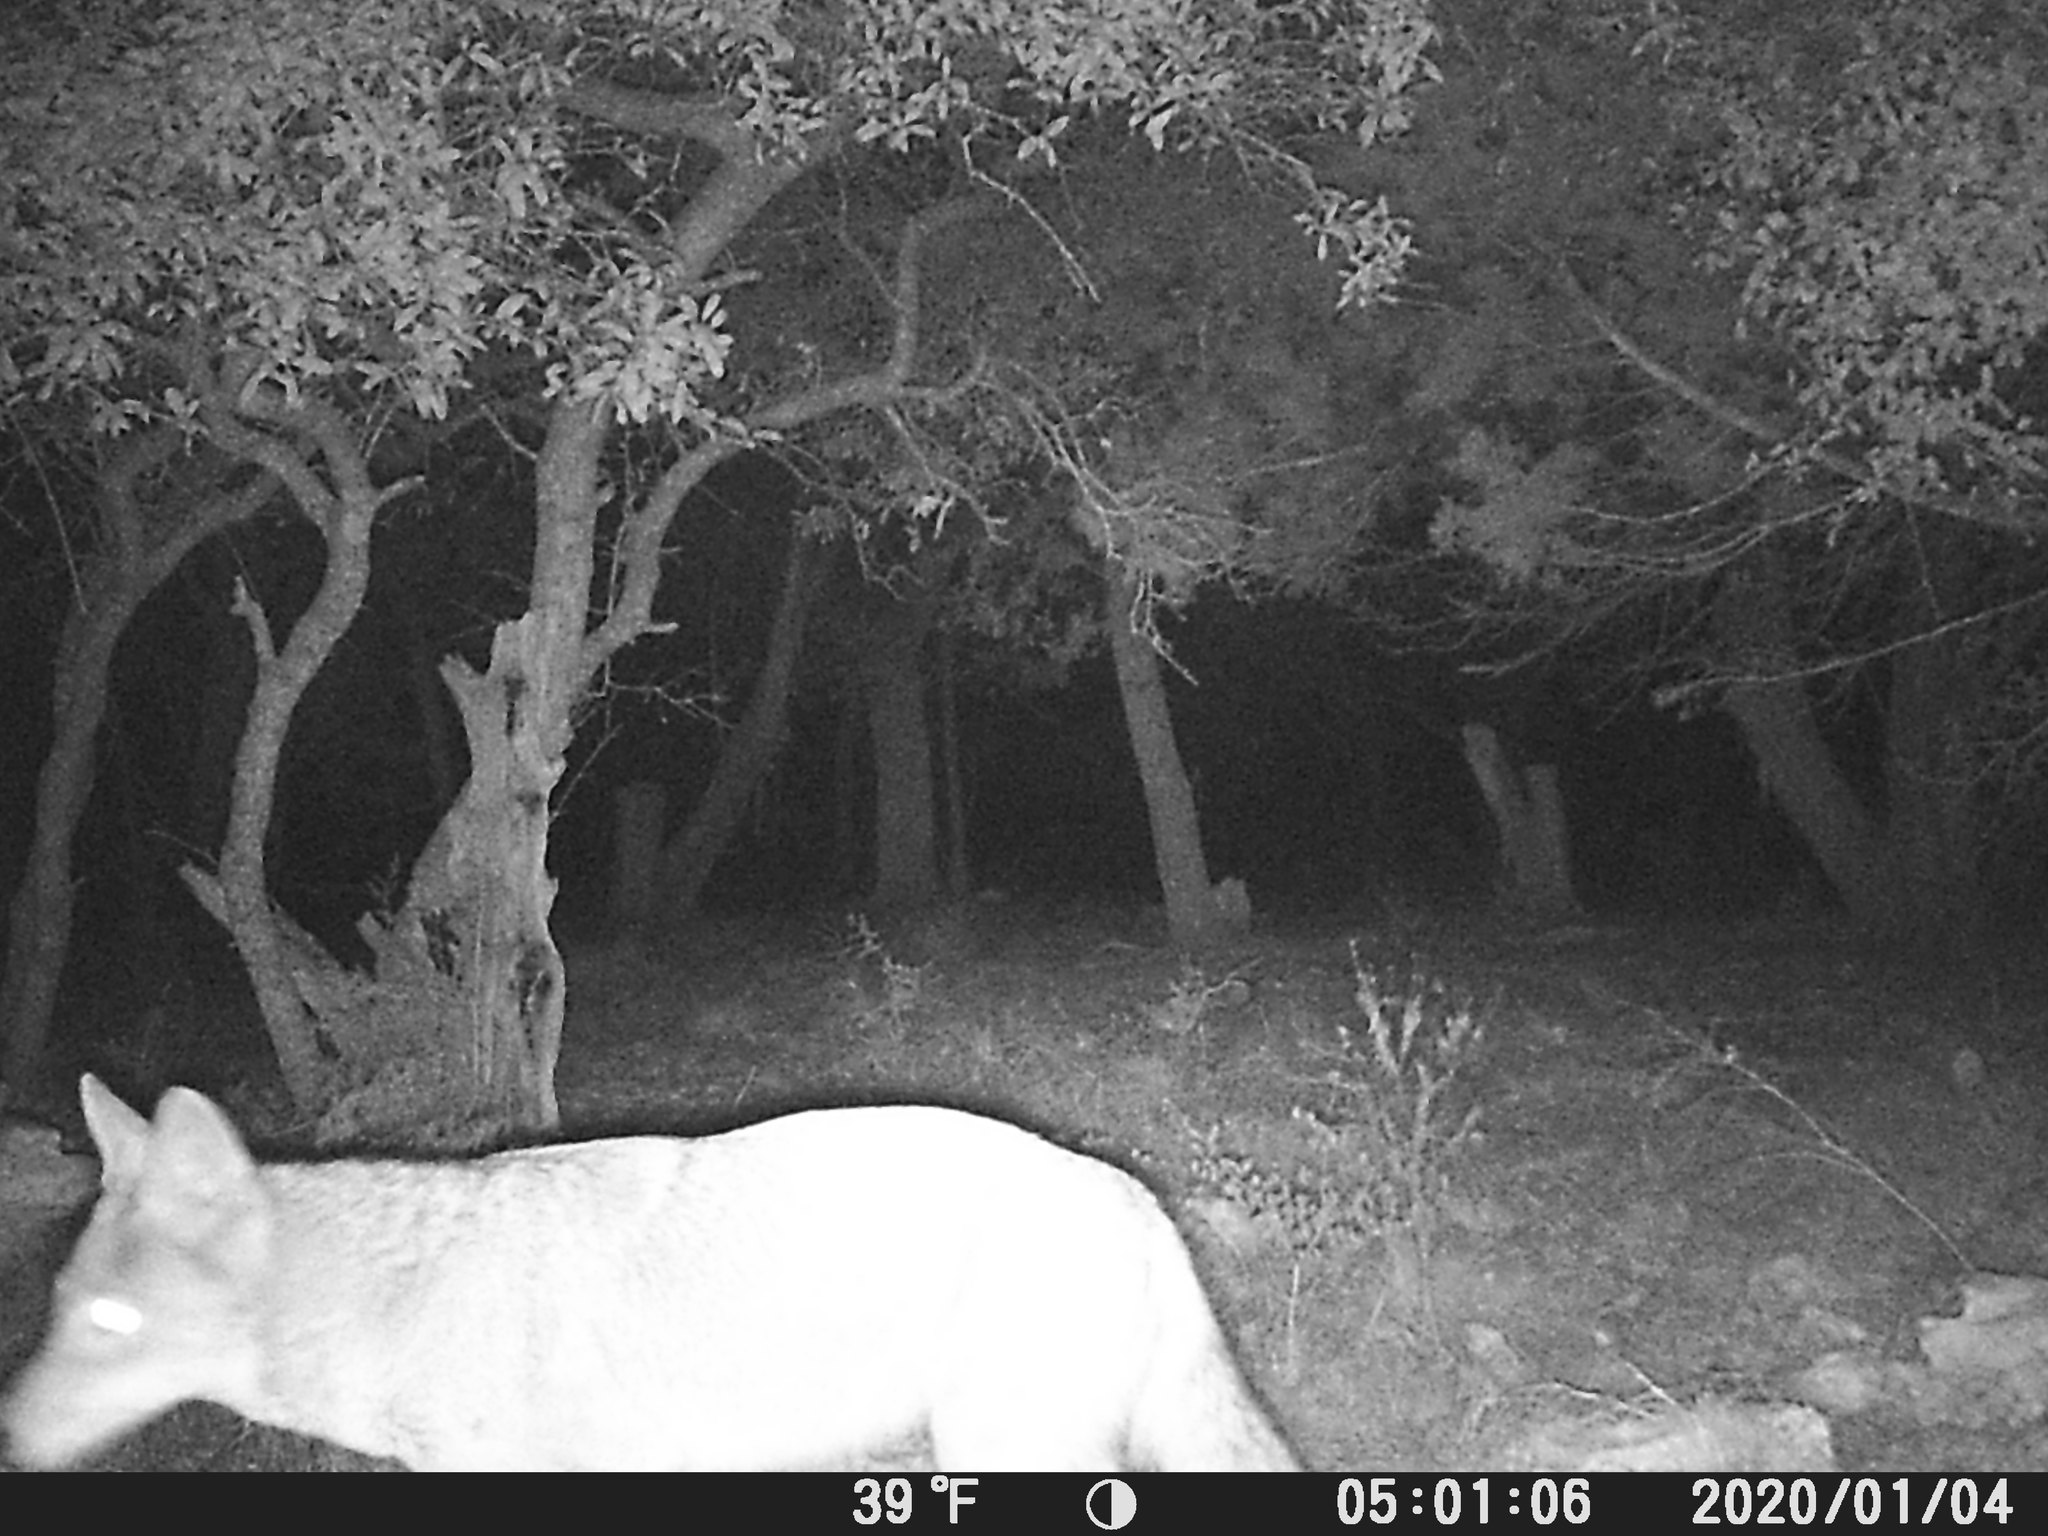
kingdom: Animalia
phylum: Chordata
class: Mammalia
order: Carnivora
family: Canidae
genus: Canis
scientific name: Canis latrans
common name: Coyote
